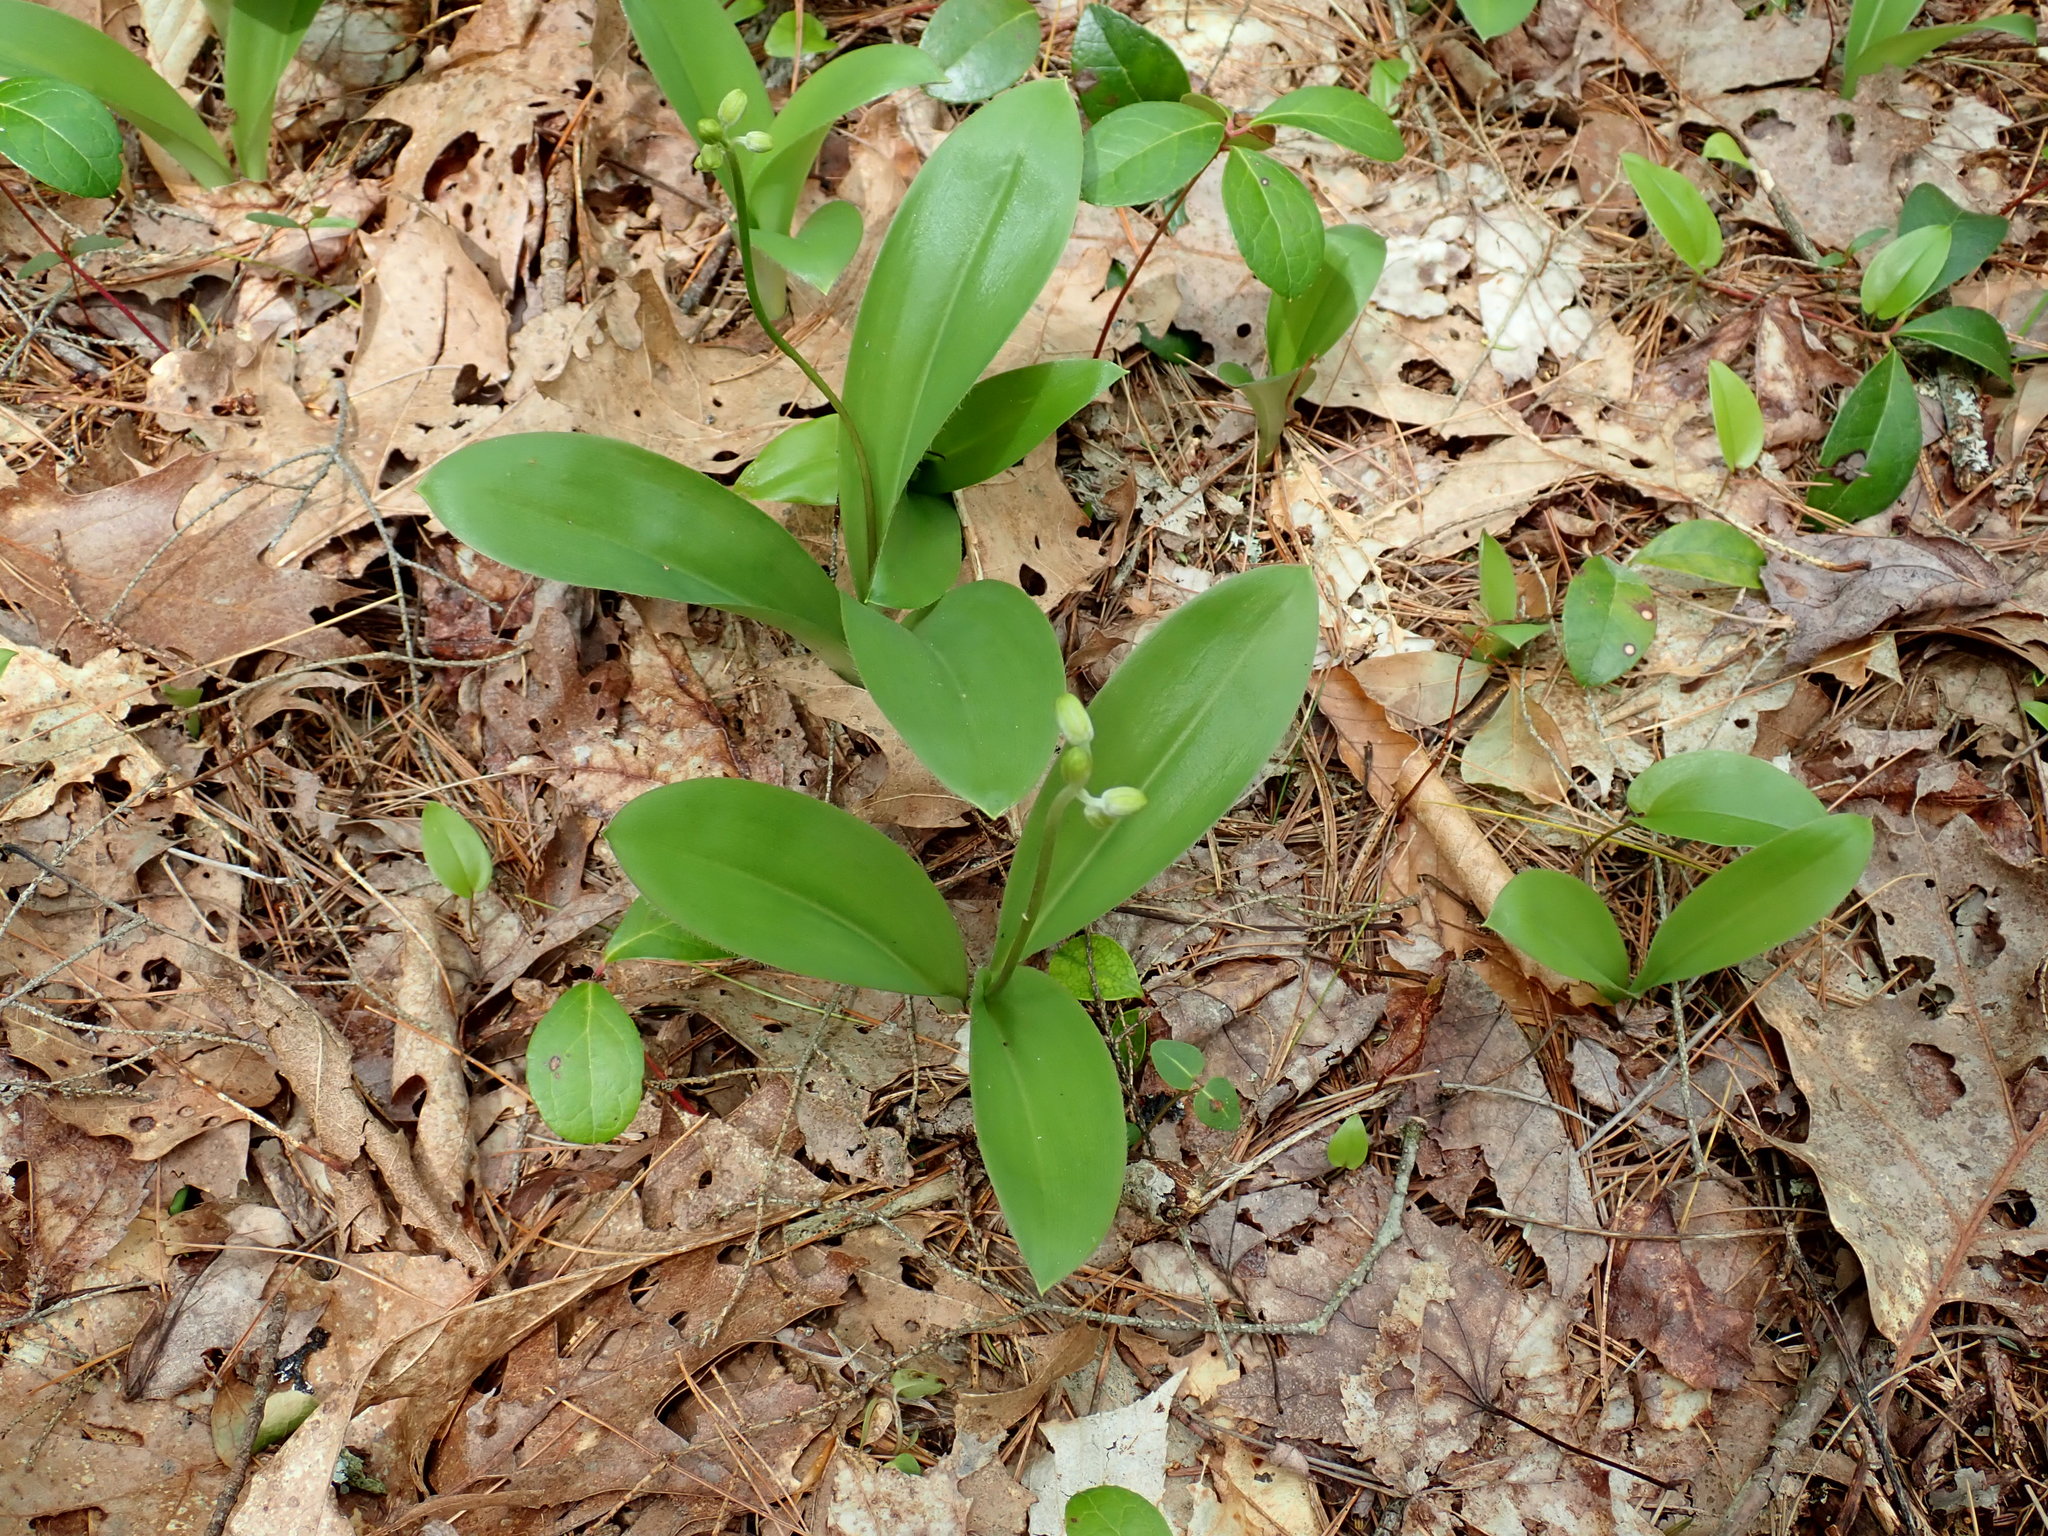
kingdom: Plantae
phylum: Tracheophyta
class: Liliopsida
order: Liliales
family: Liliaceae
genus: Clintonia
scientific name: Clintonia borealis
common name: Yellow clintonia
